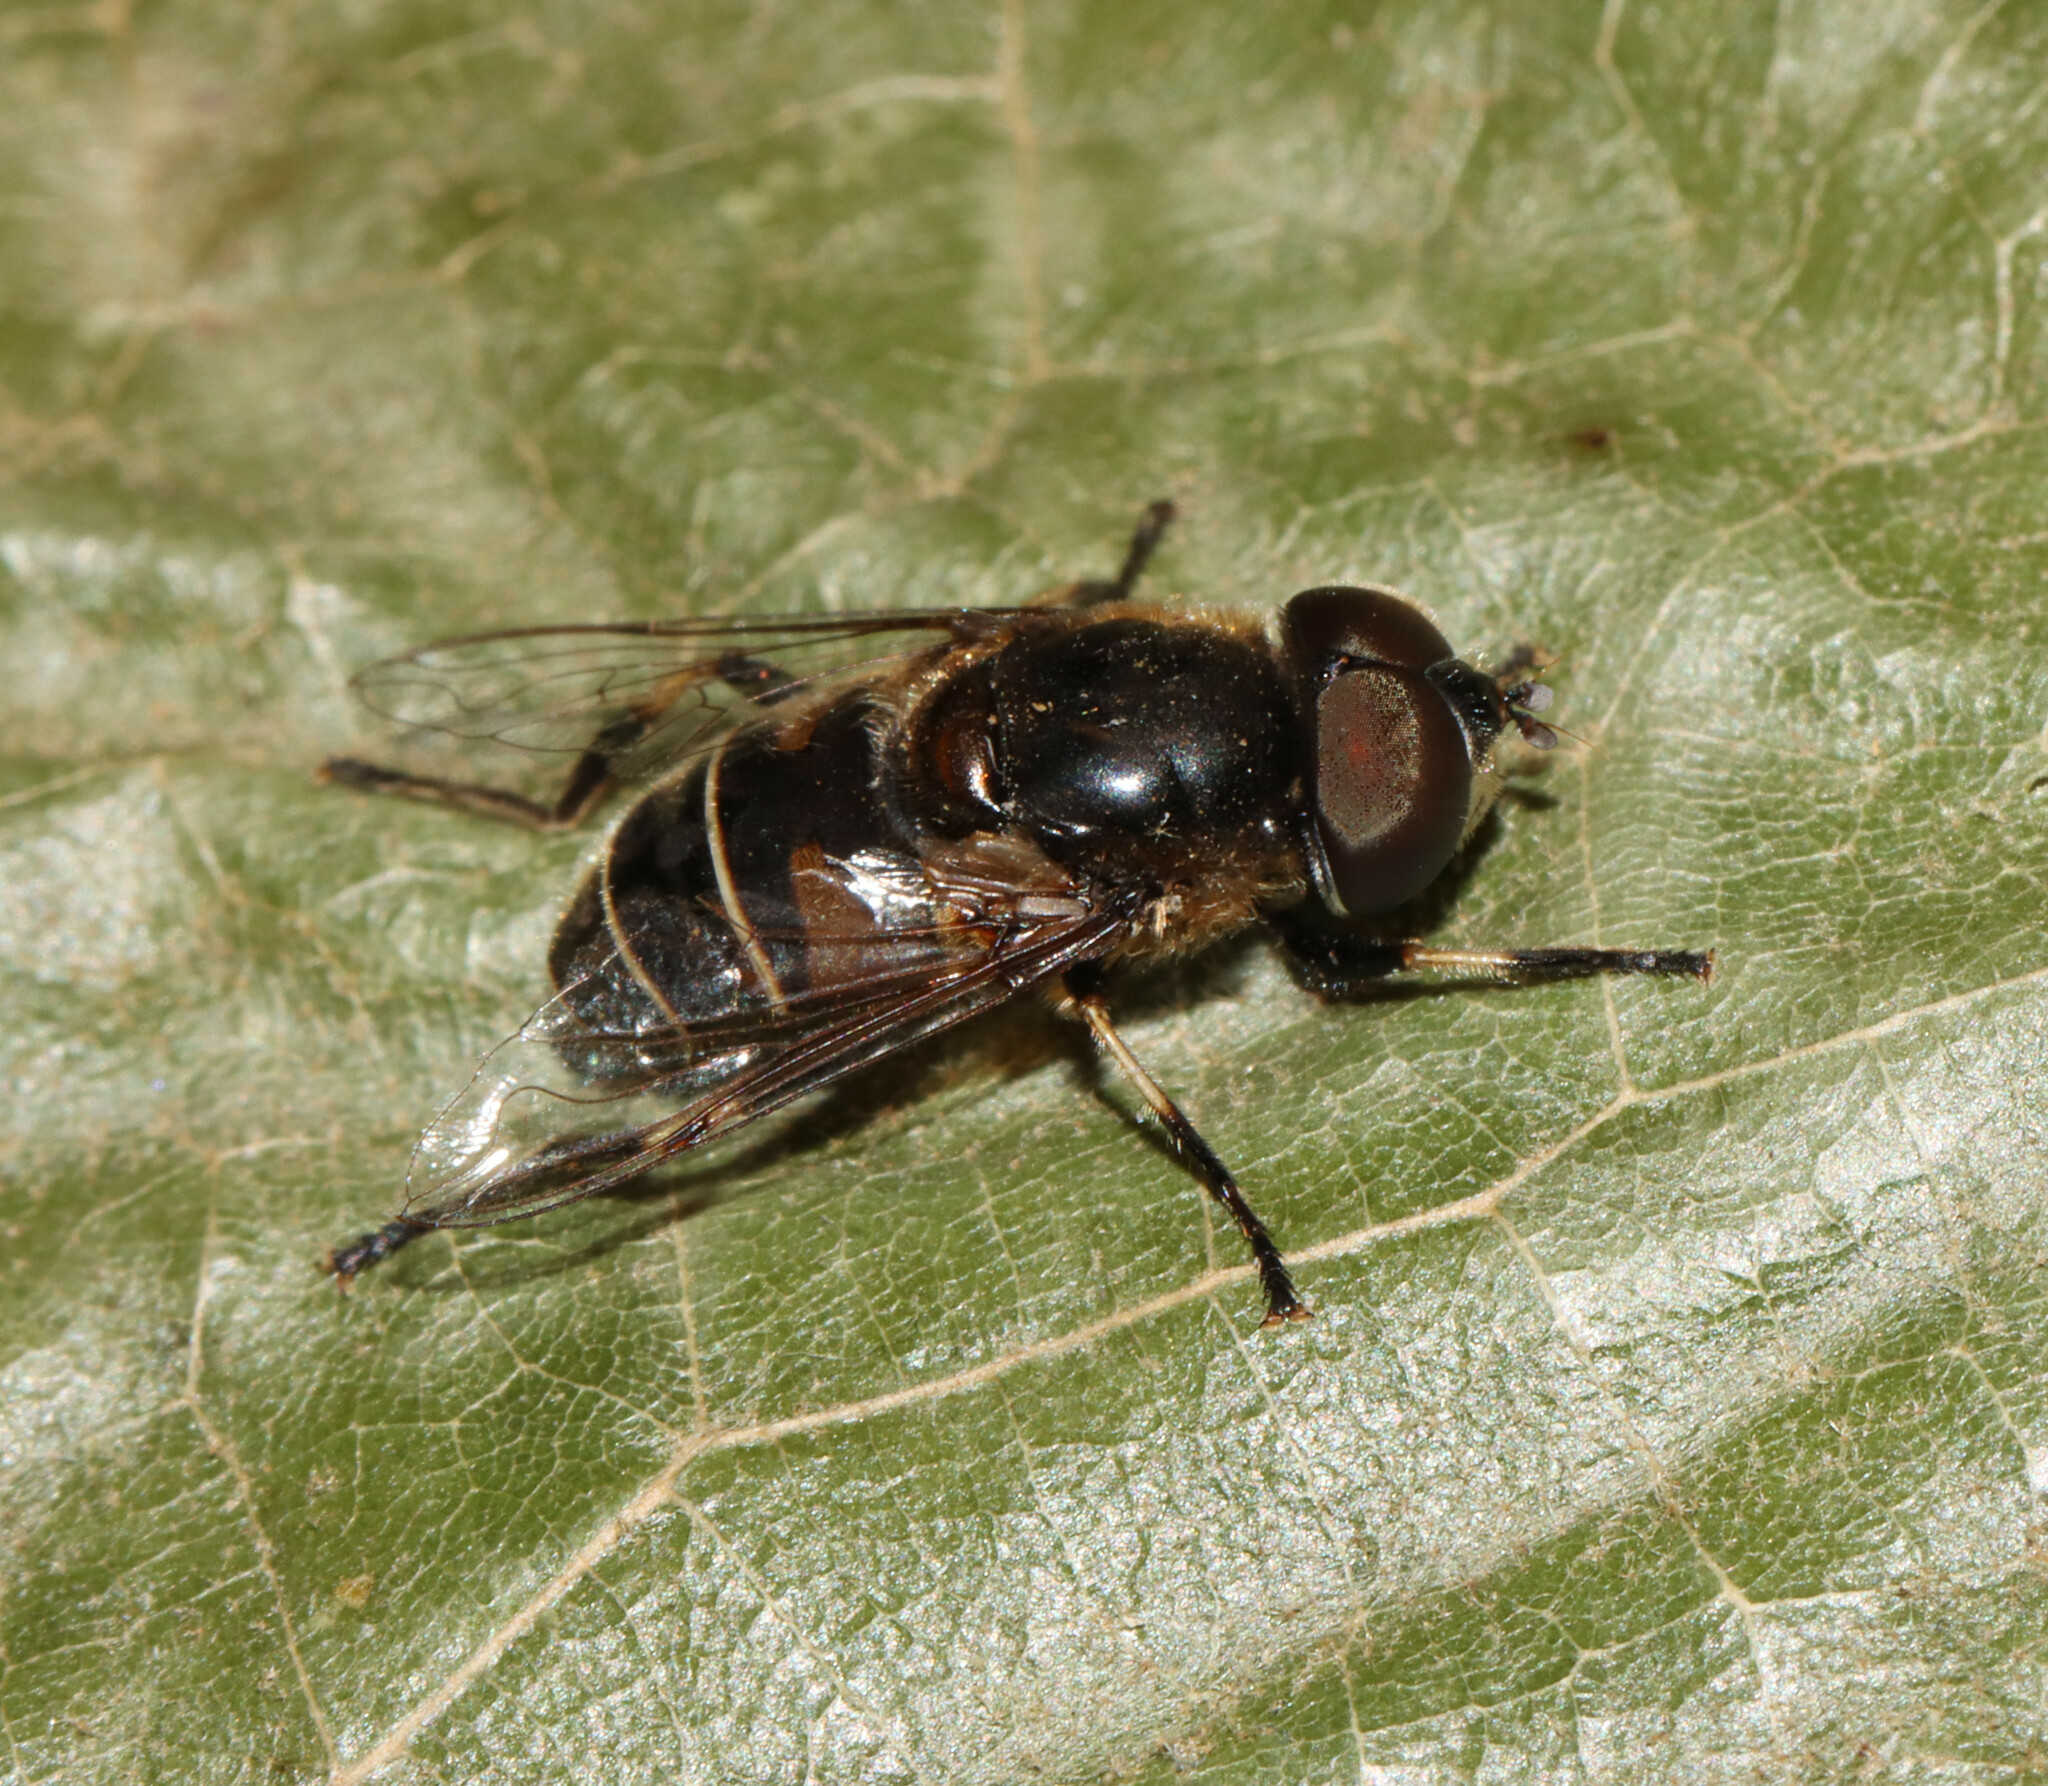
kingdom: Animalia
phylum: Arthropoda
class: Insecta
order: Diptera
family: Syrphidae
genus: Eristalis
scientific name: Eristalis dimidiata
